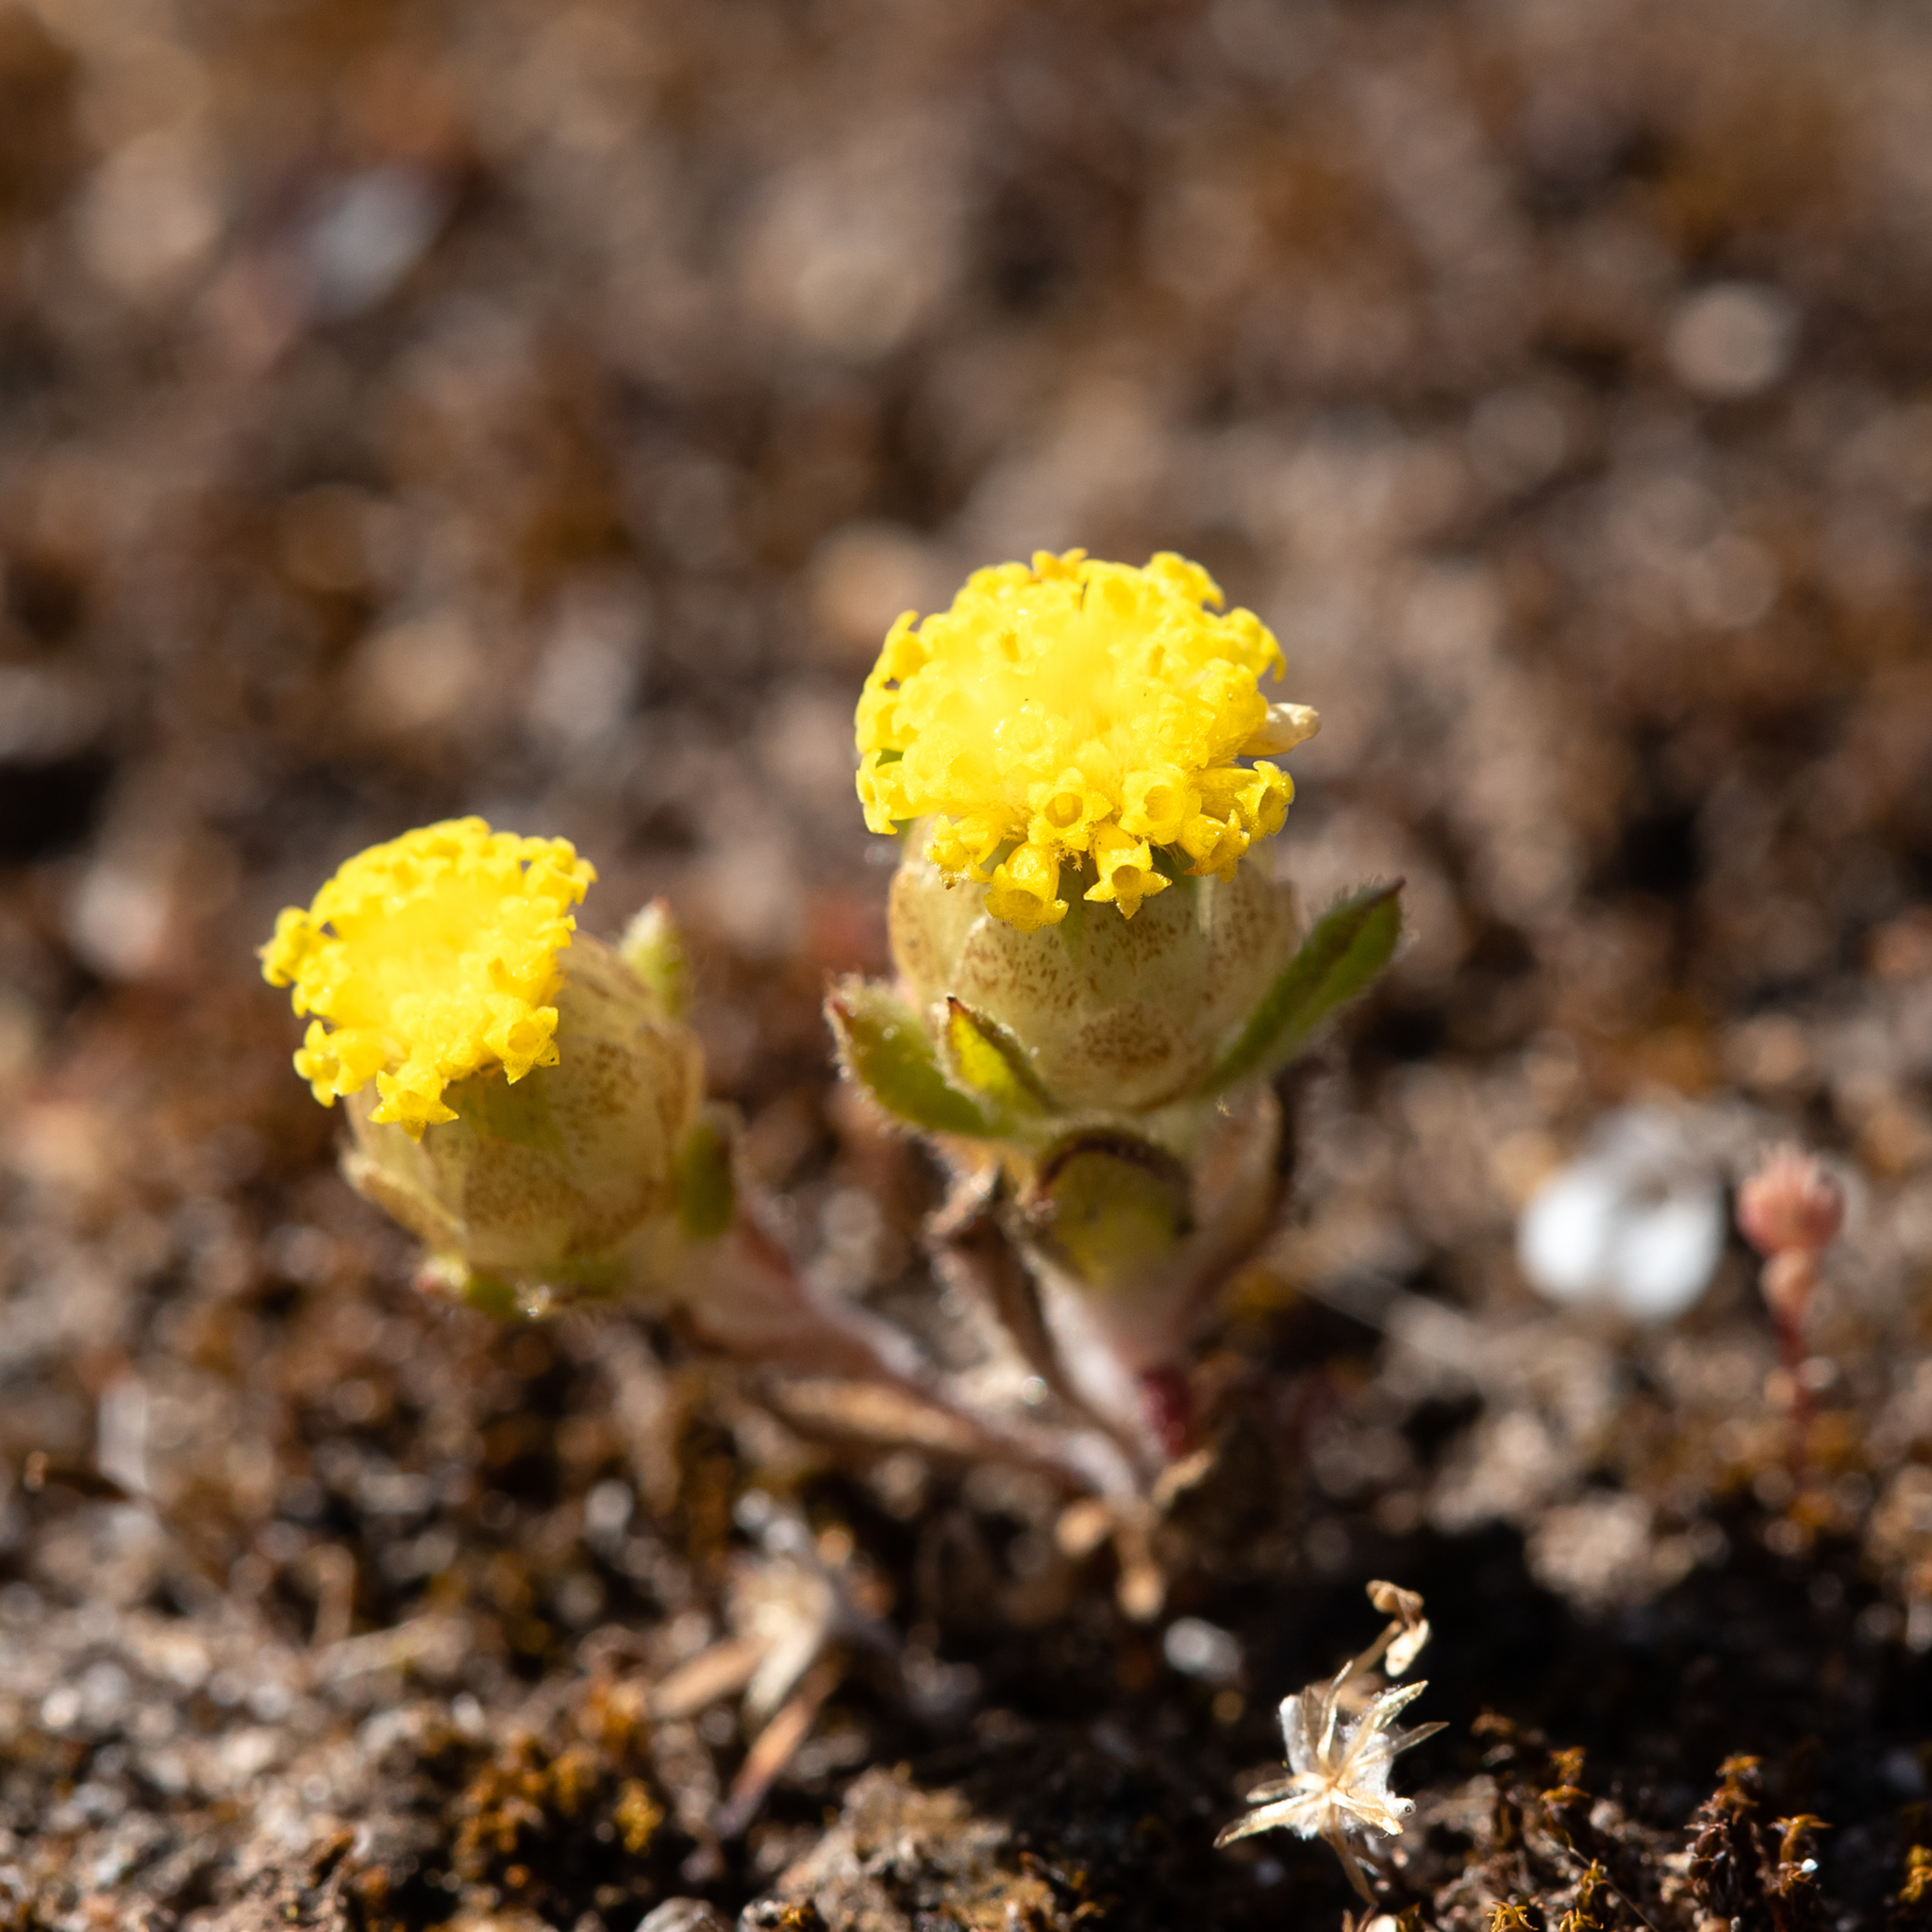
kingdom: Plantae
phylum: Tracheophyta
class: Magnoliopsida
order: Asterales
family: Asteraceae
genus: Leptorhynchos
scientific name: Leptorhynchos waitzia
